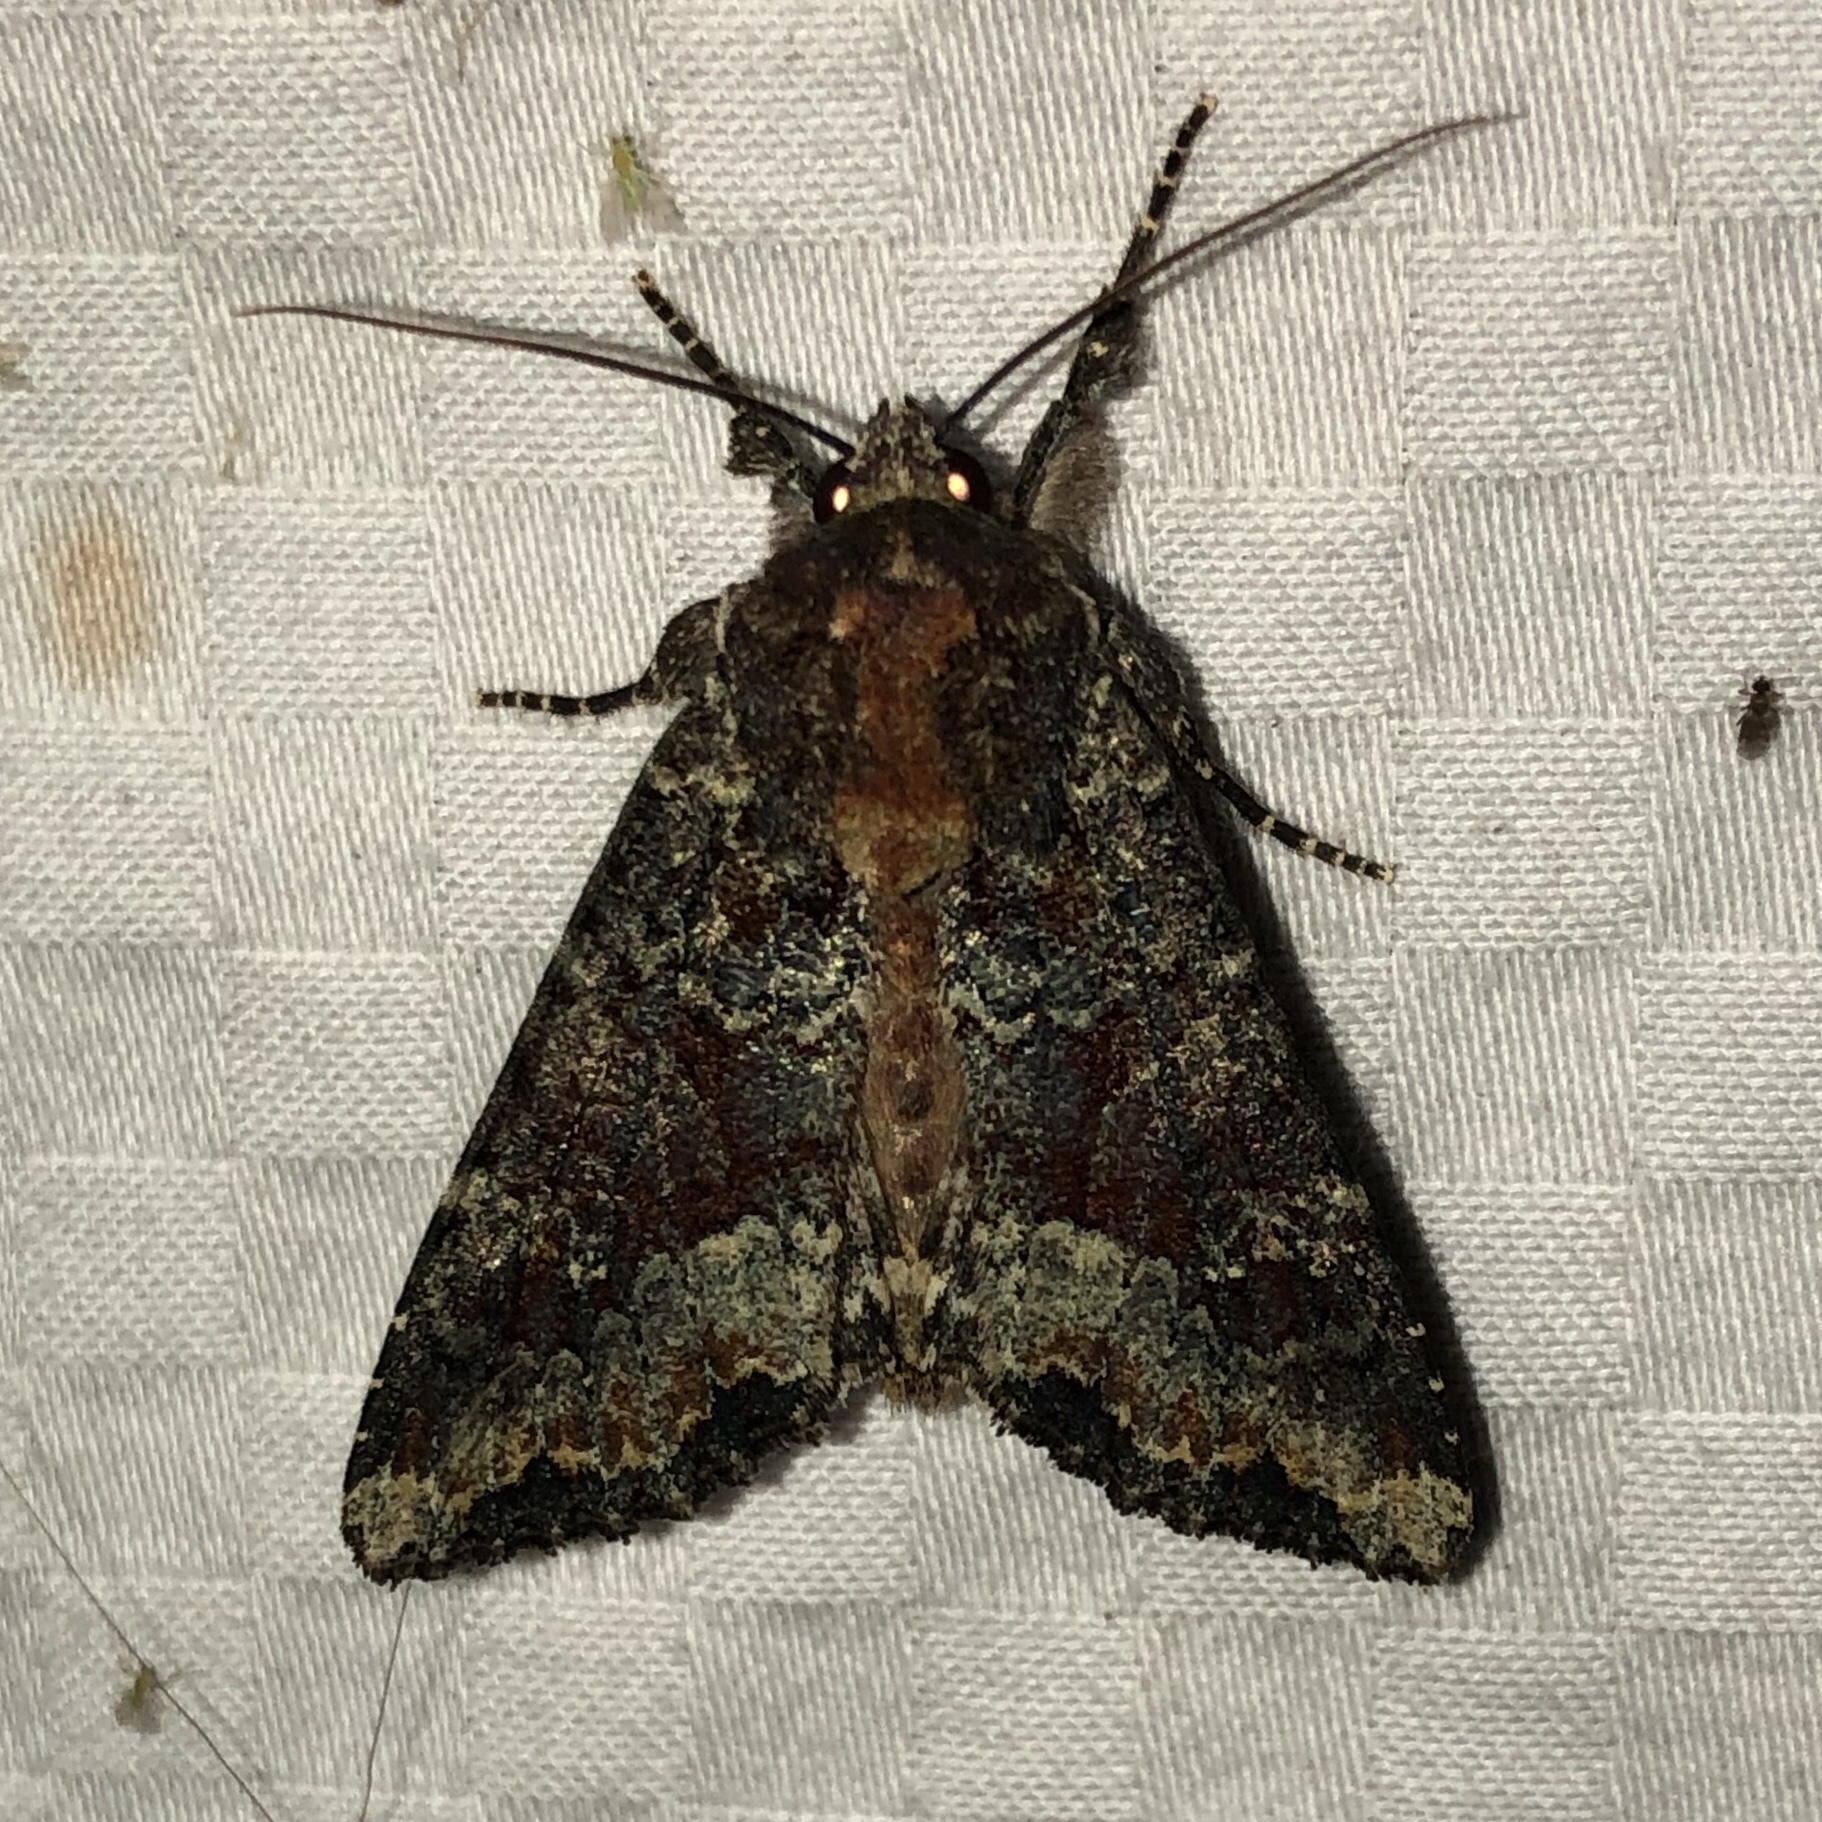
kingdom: Animalia
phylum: Arthropoda
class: Insecta
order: Lepidoptera
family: Noctuidae
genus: Apamea
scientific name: Apamea amputatrix
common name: Yellow-headed cutworm moth
